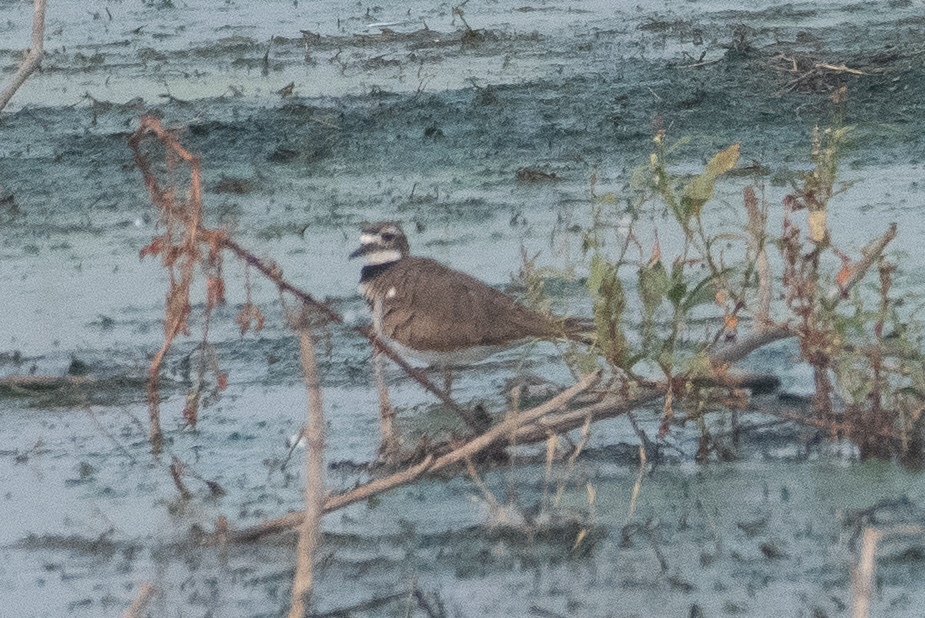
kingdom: Animalia
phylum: Chordata
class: Aves
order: Charadriiformes
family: Charadriidae
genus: Charadrius
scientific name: Charadrius vociferus
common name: Killdeer
